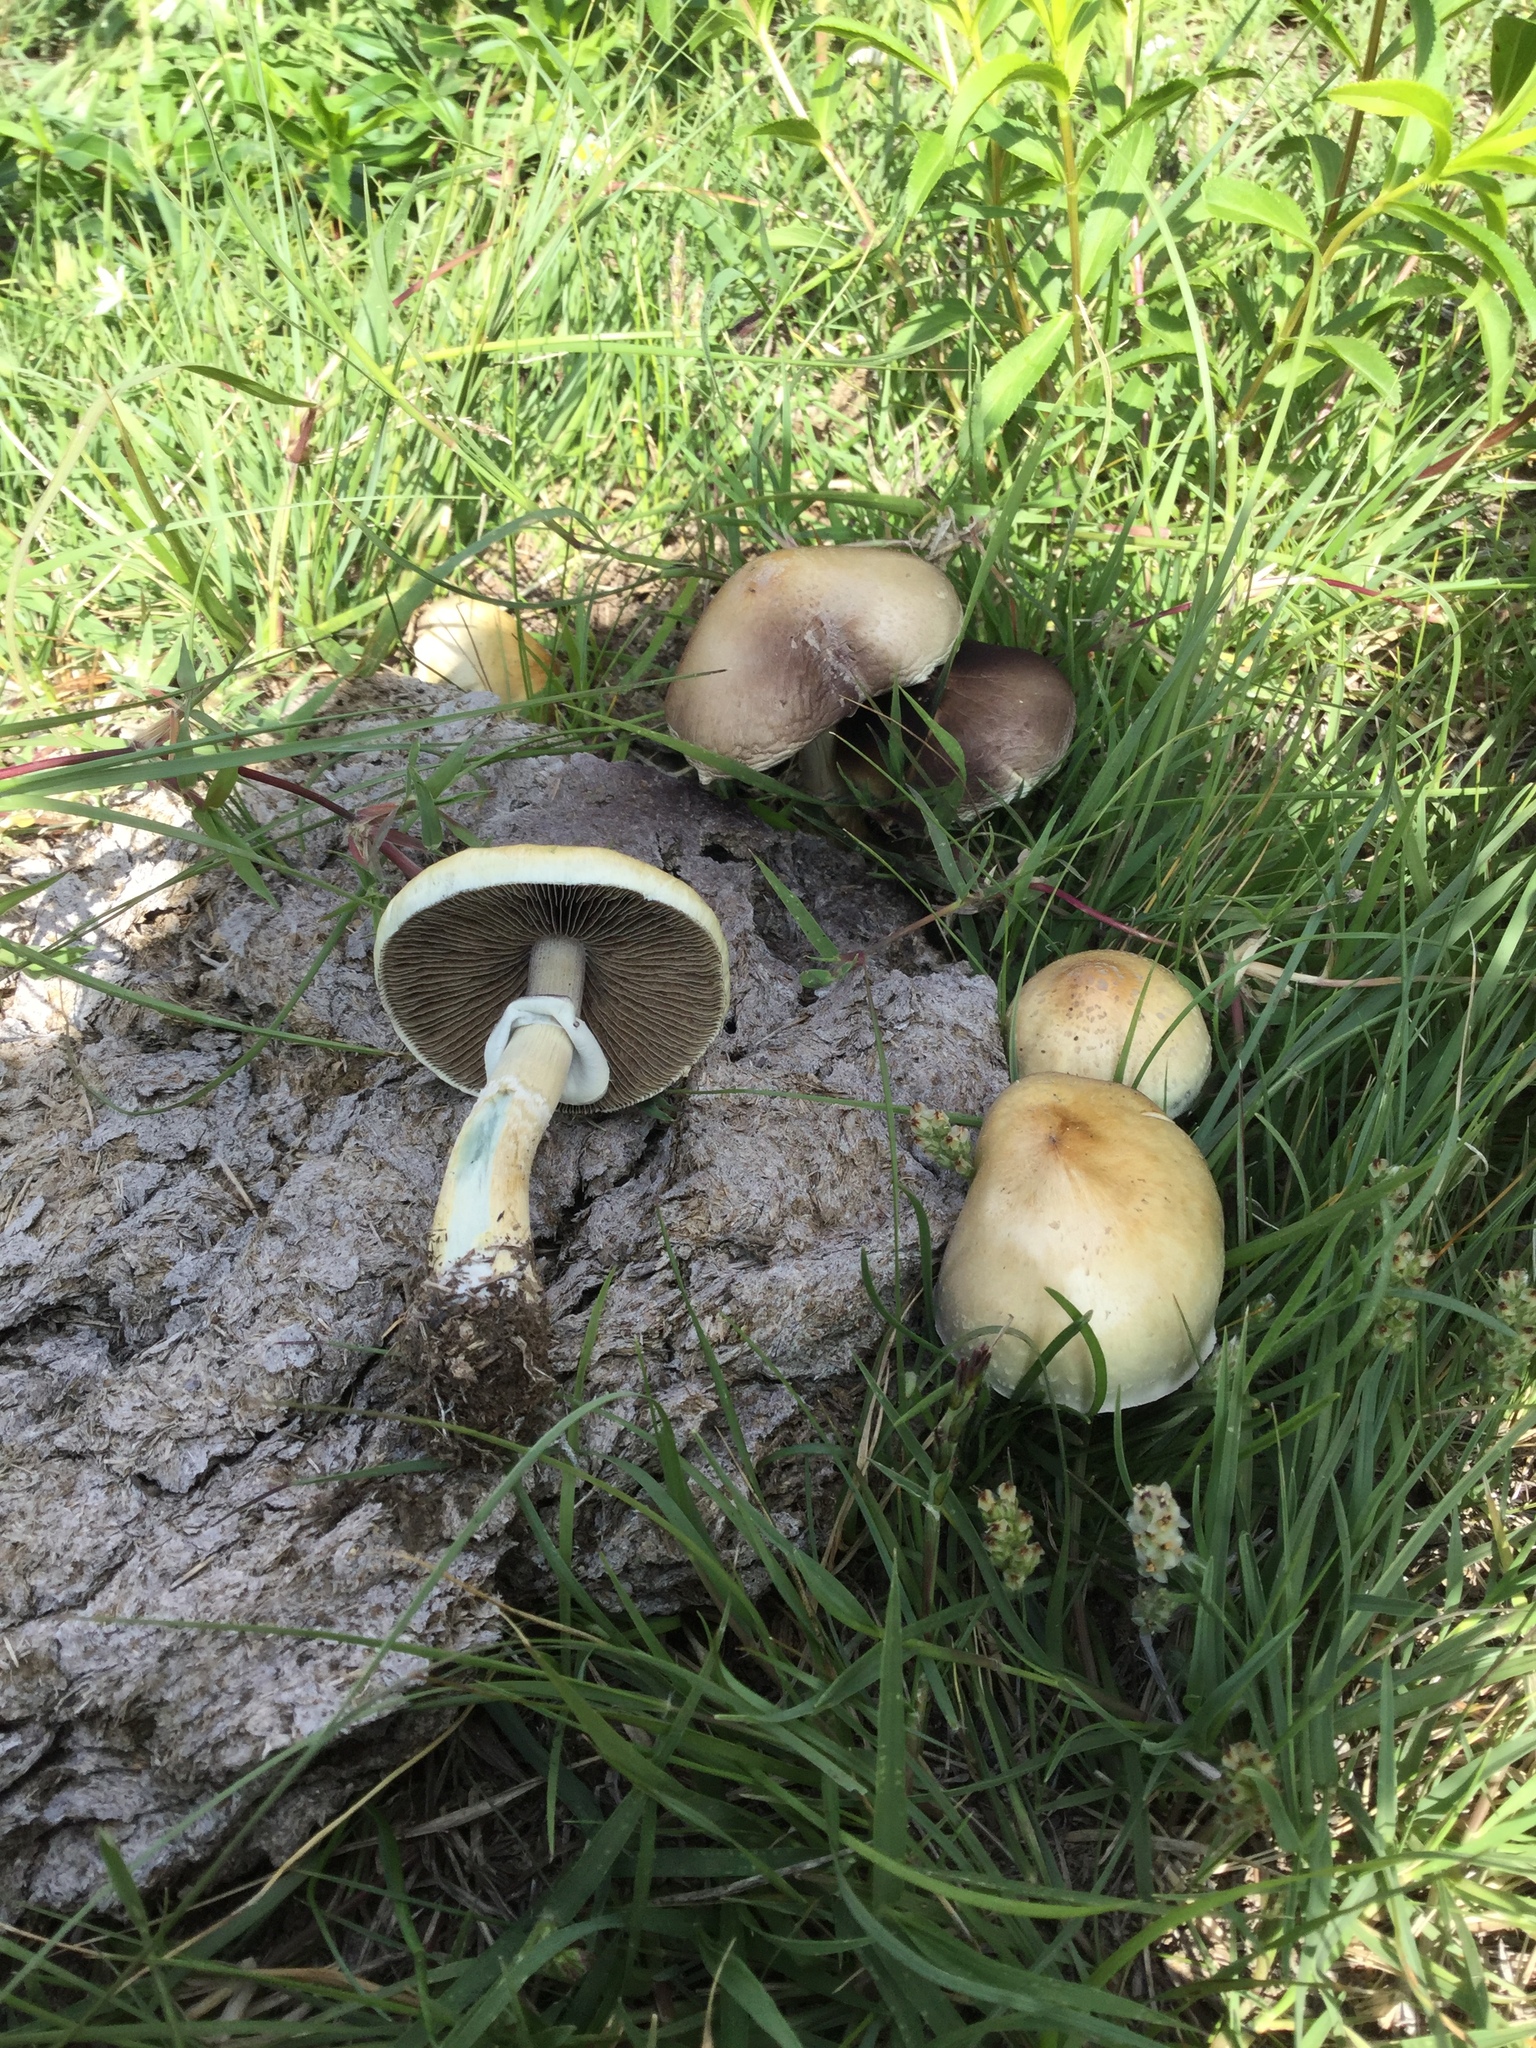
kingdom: Fungi
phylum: Basidiomycota
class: Agaricomycetes
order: Agaricales
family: Hymenogastraceae
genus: Psilocybe
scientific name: Psilocybe cubensis
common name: Golden brownie
